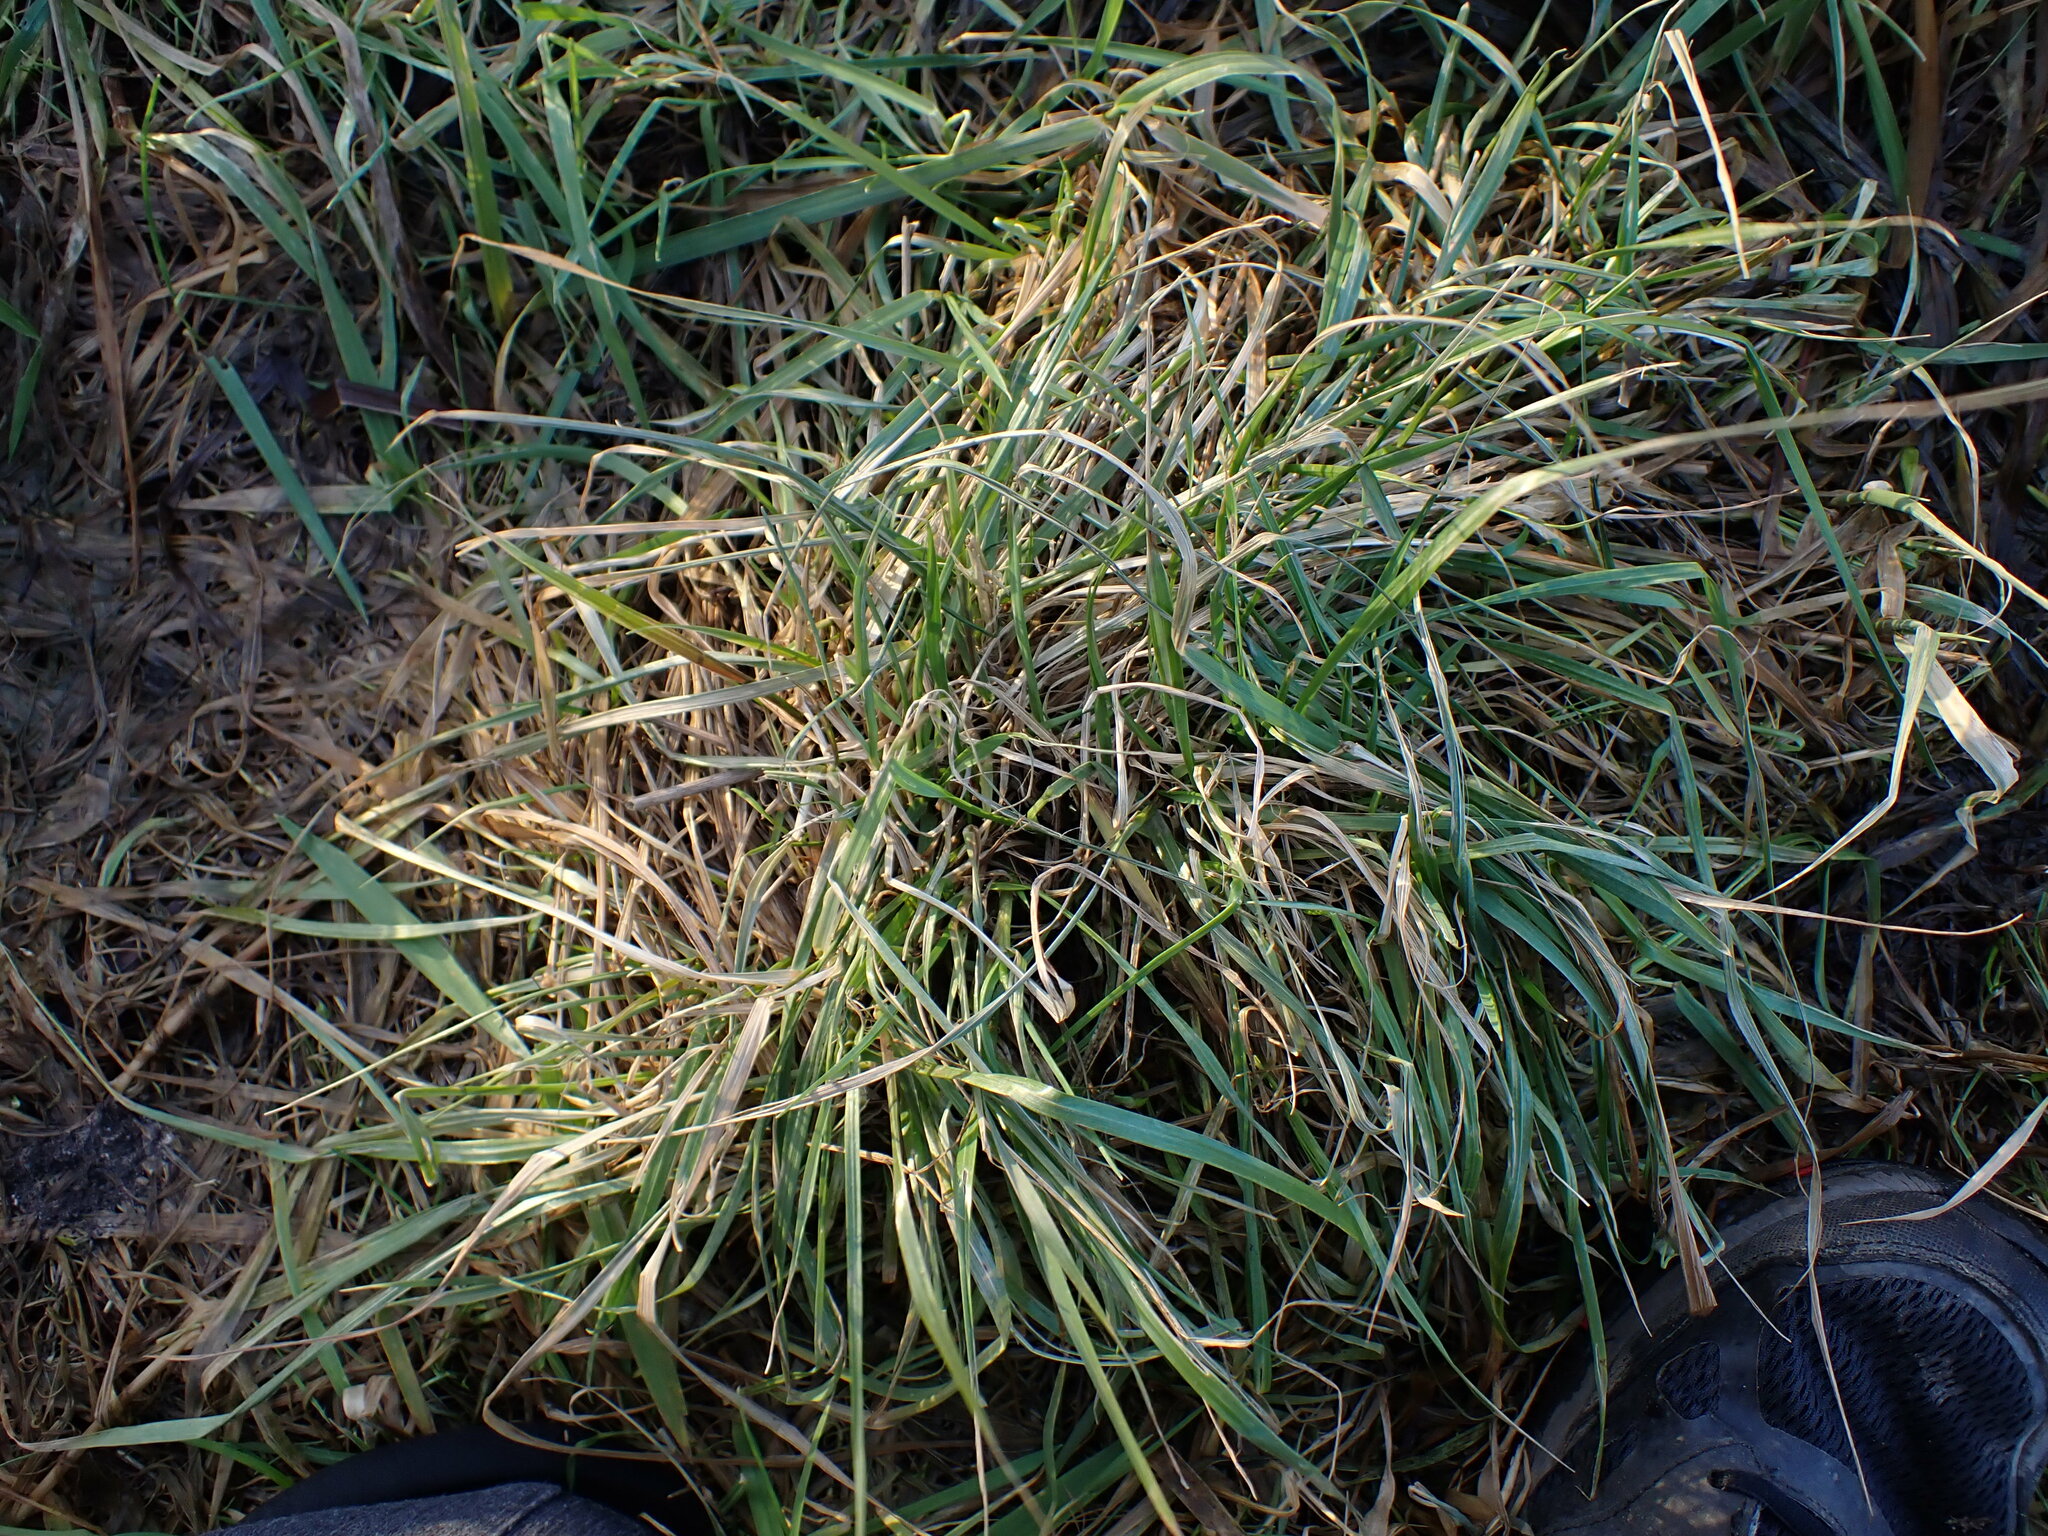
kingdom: Plantae
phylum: Tracheophyta
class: Liliopsida
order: Poales
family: Poaceae
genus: Lolium
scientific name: Lolium arundinaceum
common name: Reed fescue
